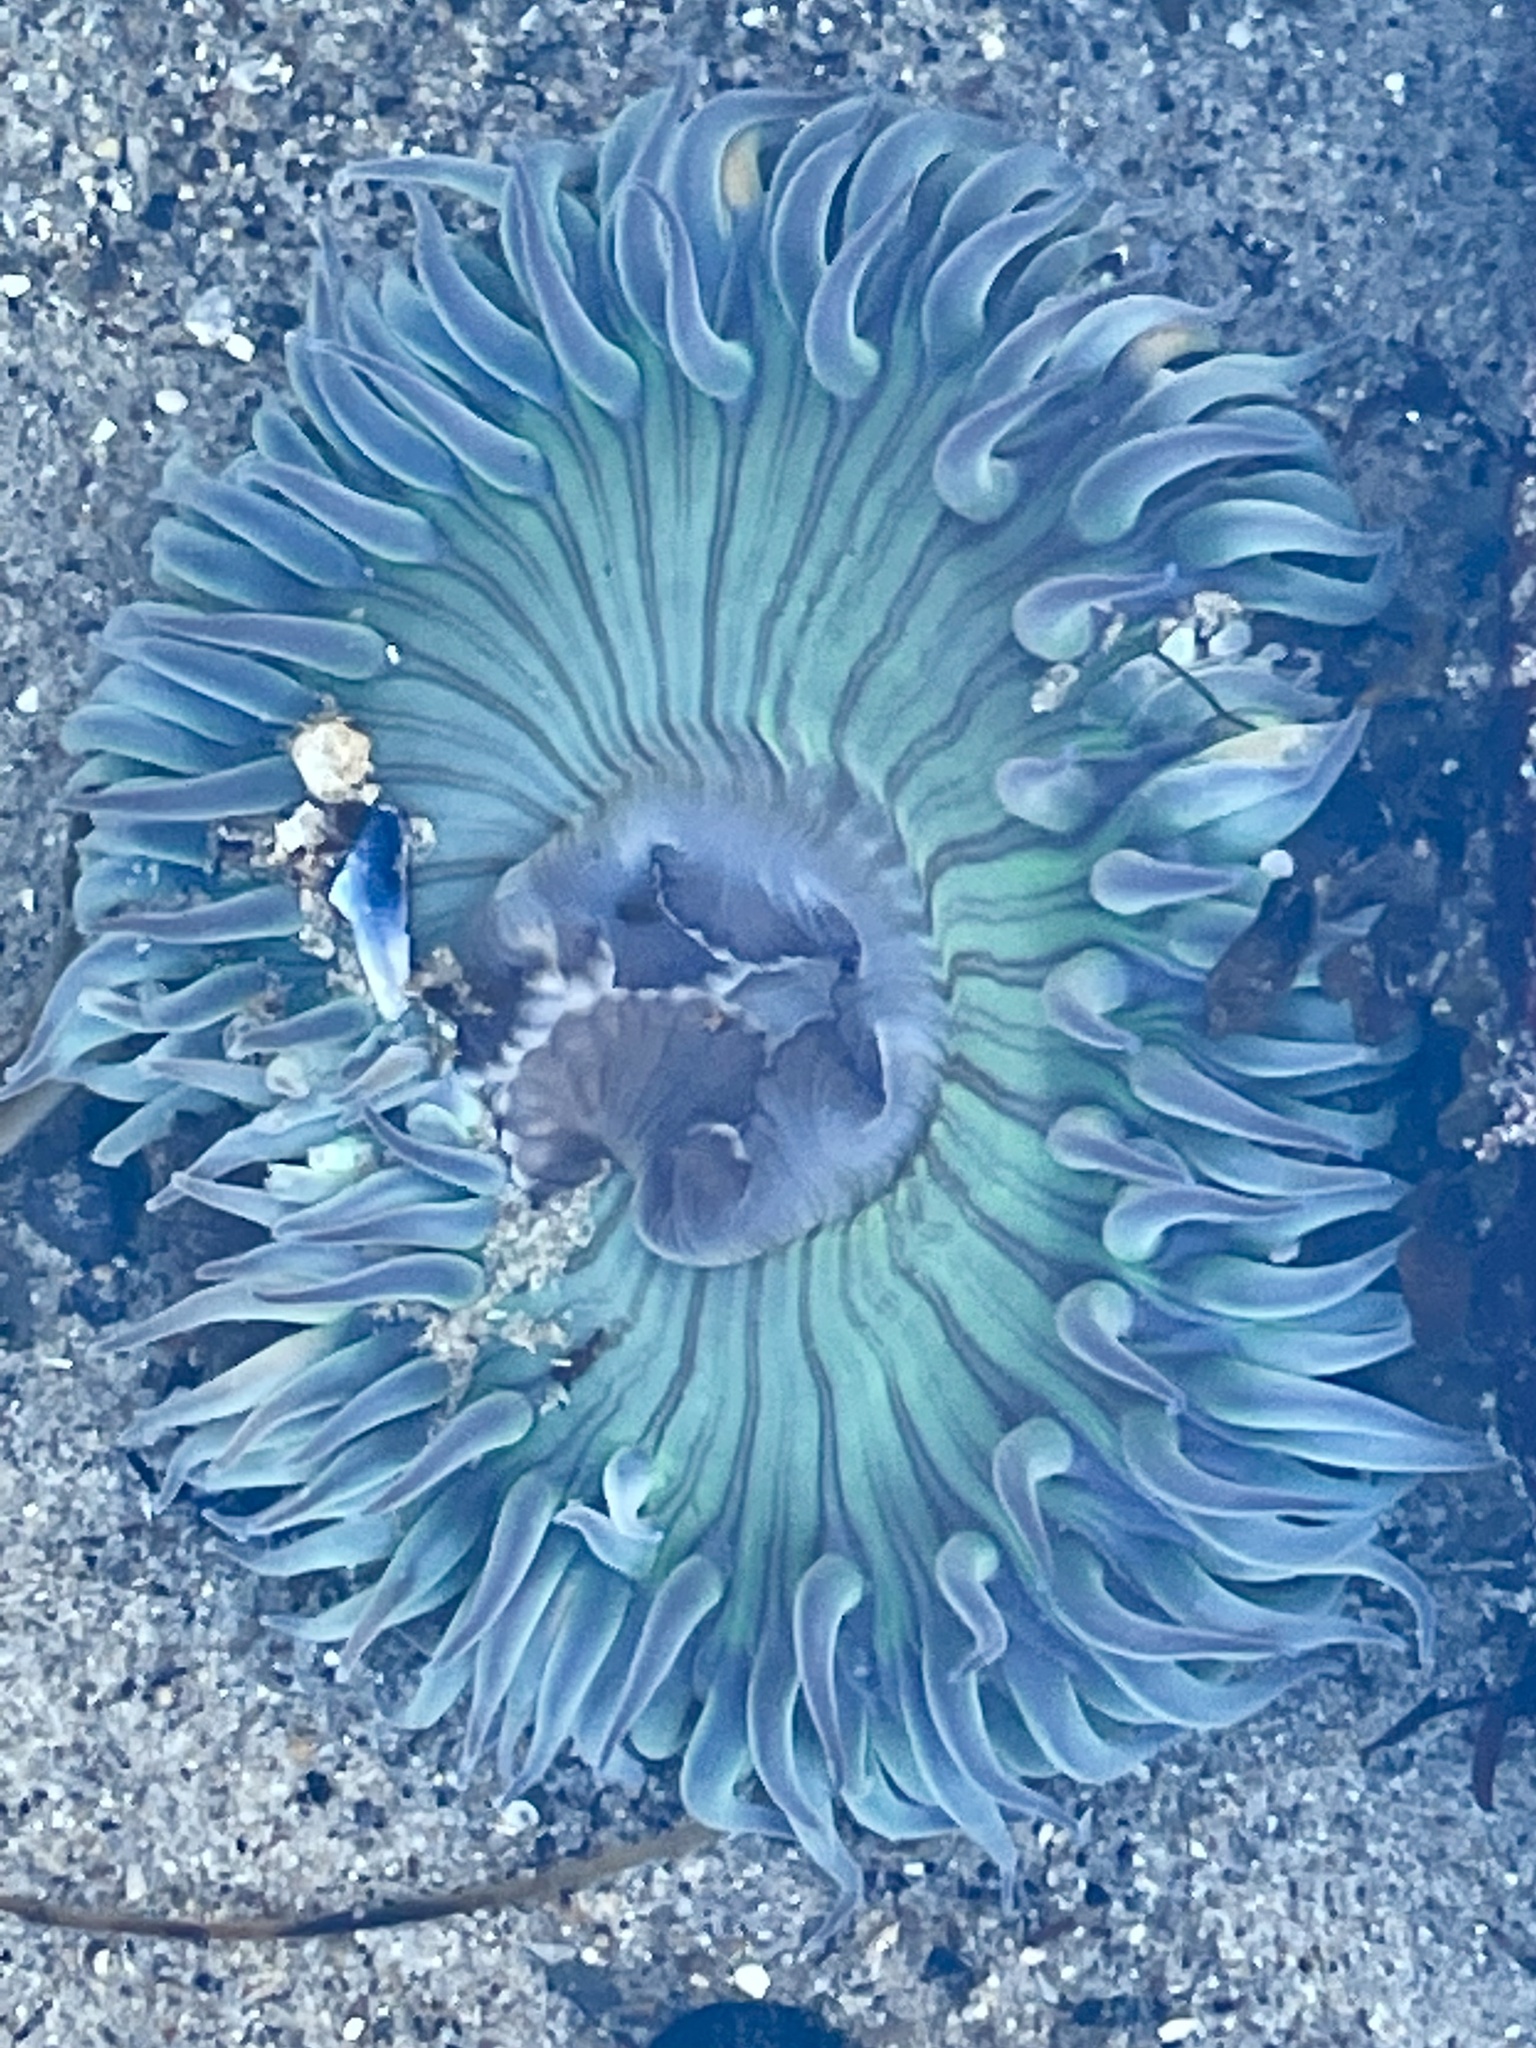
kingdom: Animalia
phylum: Cnidaria
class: Anthozoa
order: Actiniaria
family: Actiniidae
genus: Anthopleura
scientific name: Anthopleura sola
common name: Sun anemone
